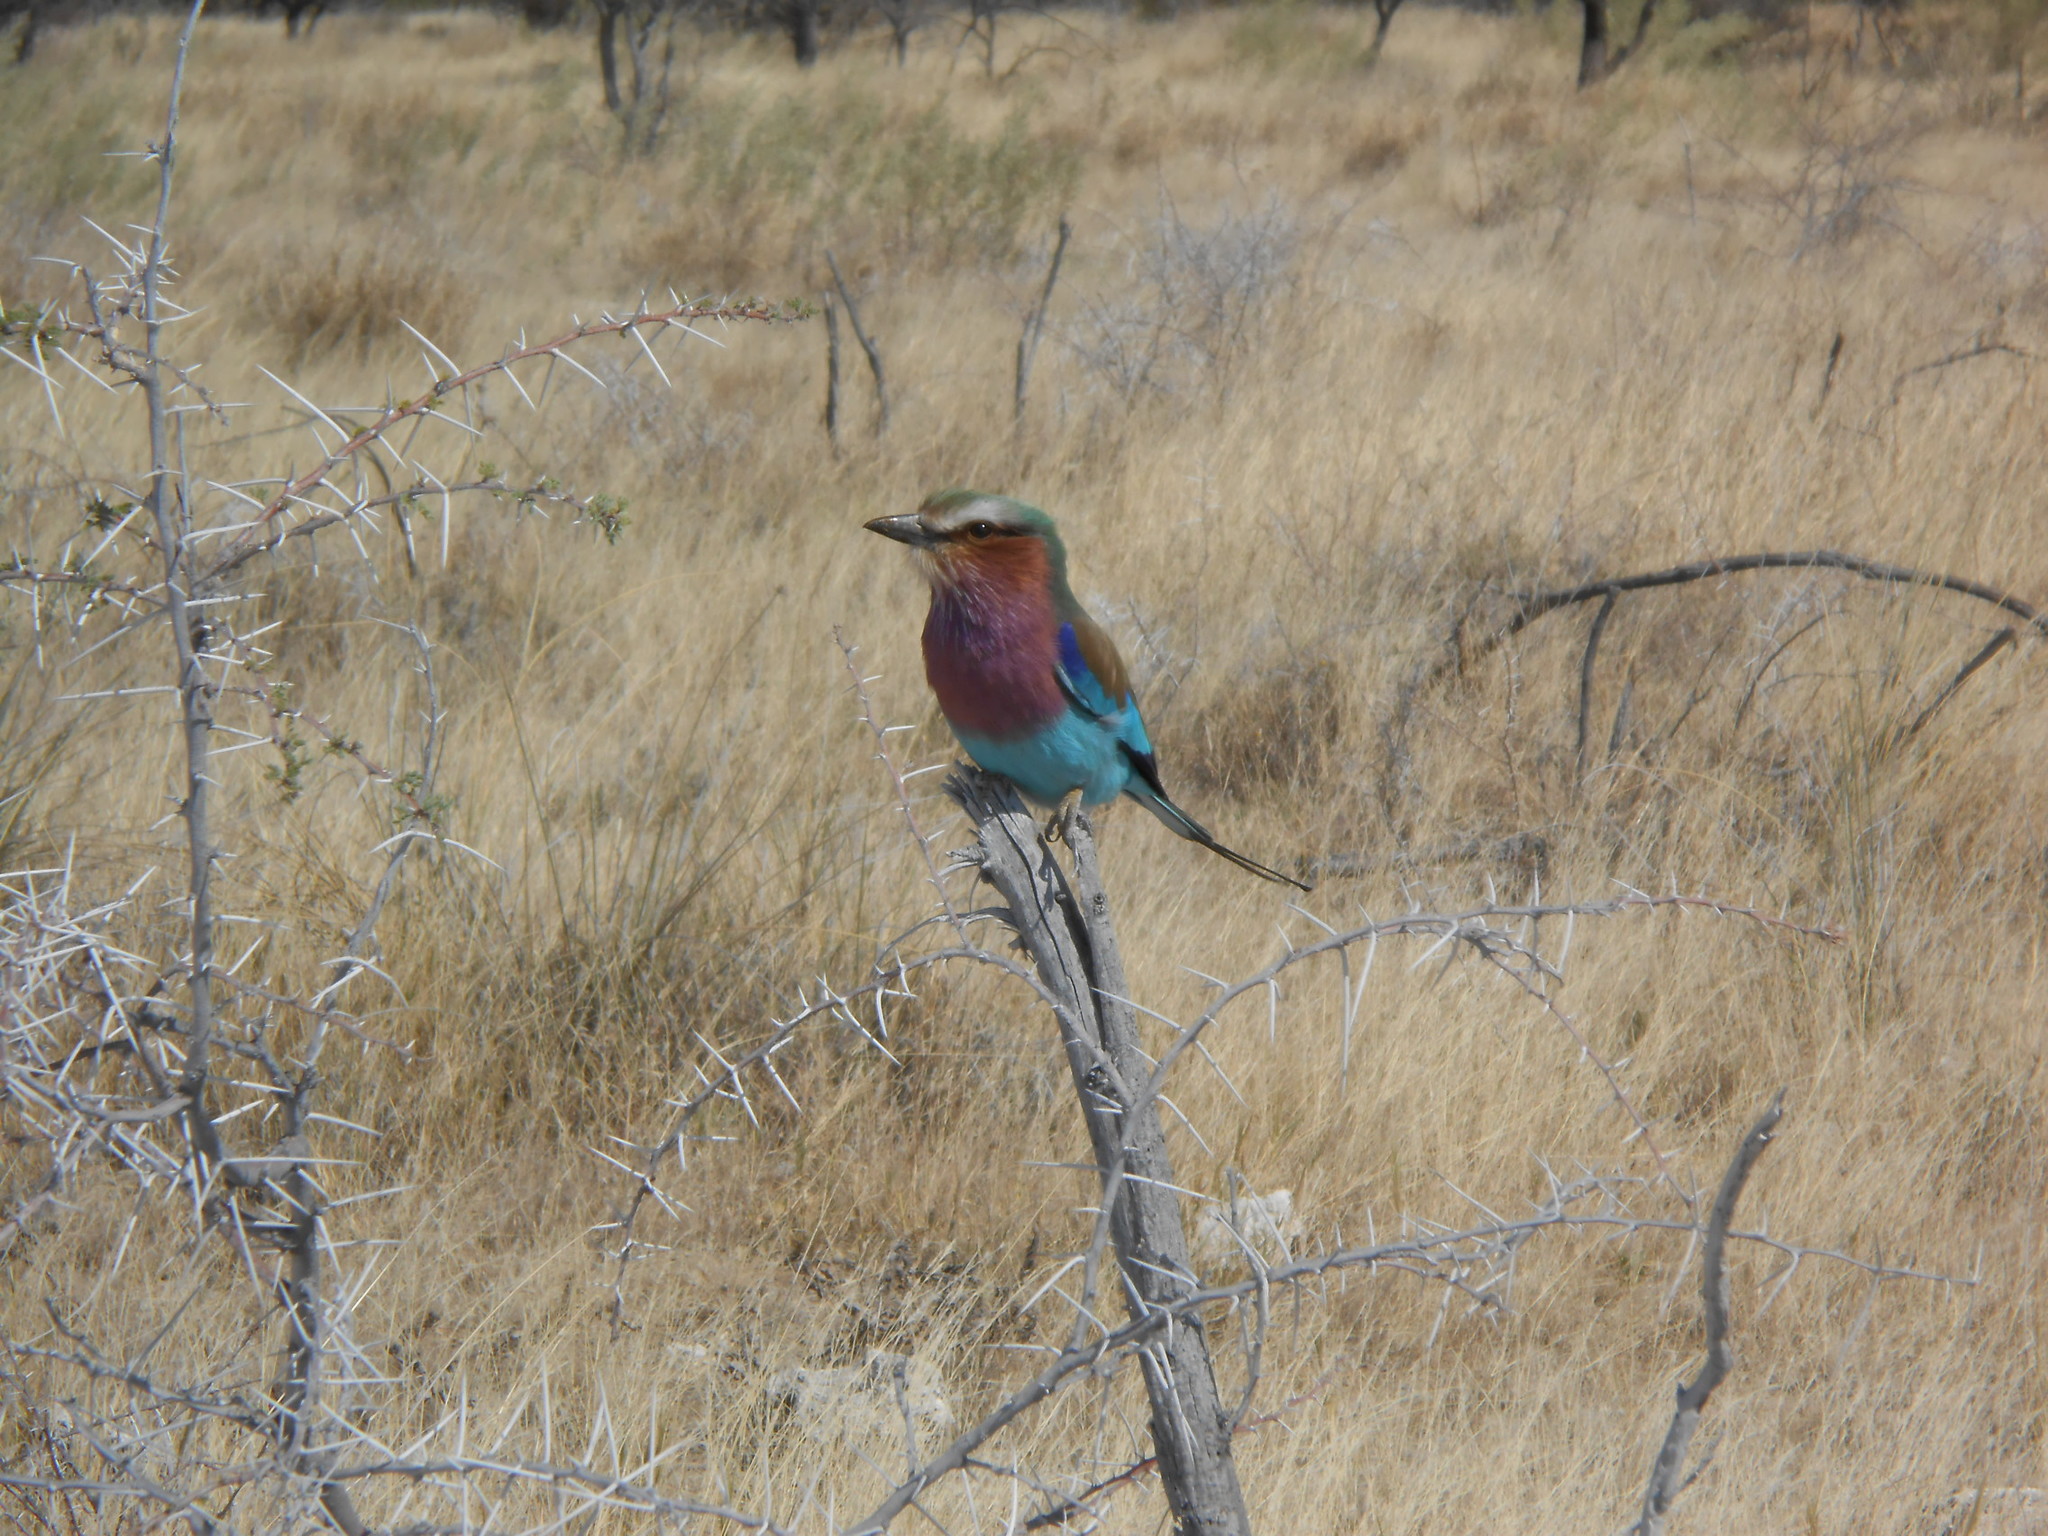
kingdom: Animalia
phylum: Chordata
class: Aves
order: Coraciiformes
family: Coraciidae
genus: Coracias
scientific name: Coracias caudatus
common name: Lilac-breasted roller
